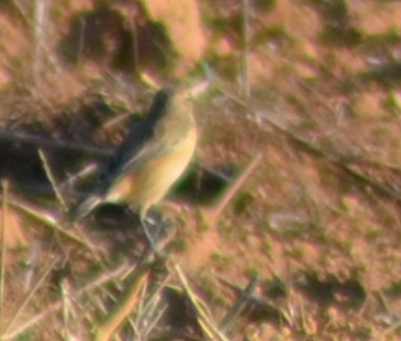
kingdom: Animalia
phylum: Chordata
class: Aves
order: Passeriformes
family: Muscicapidae
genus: Saxicola
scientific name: Saxicola rubicola
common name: European stonechat
